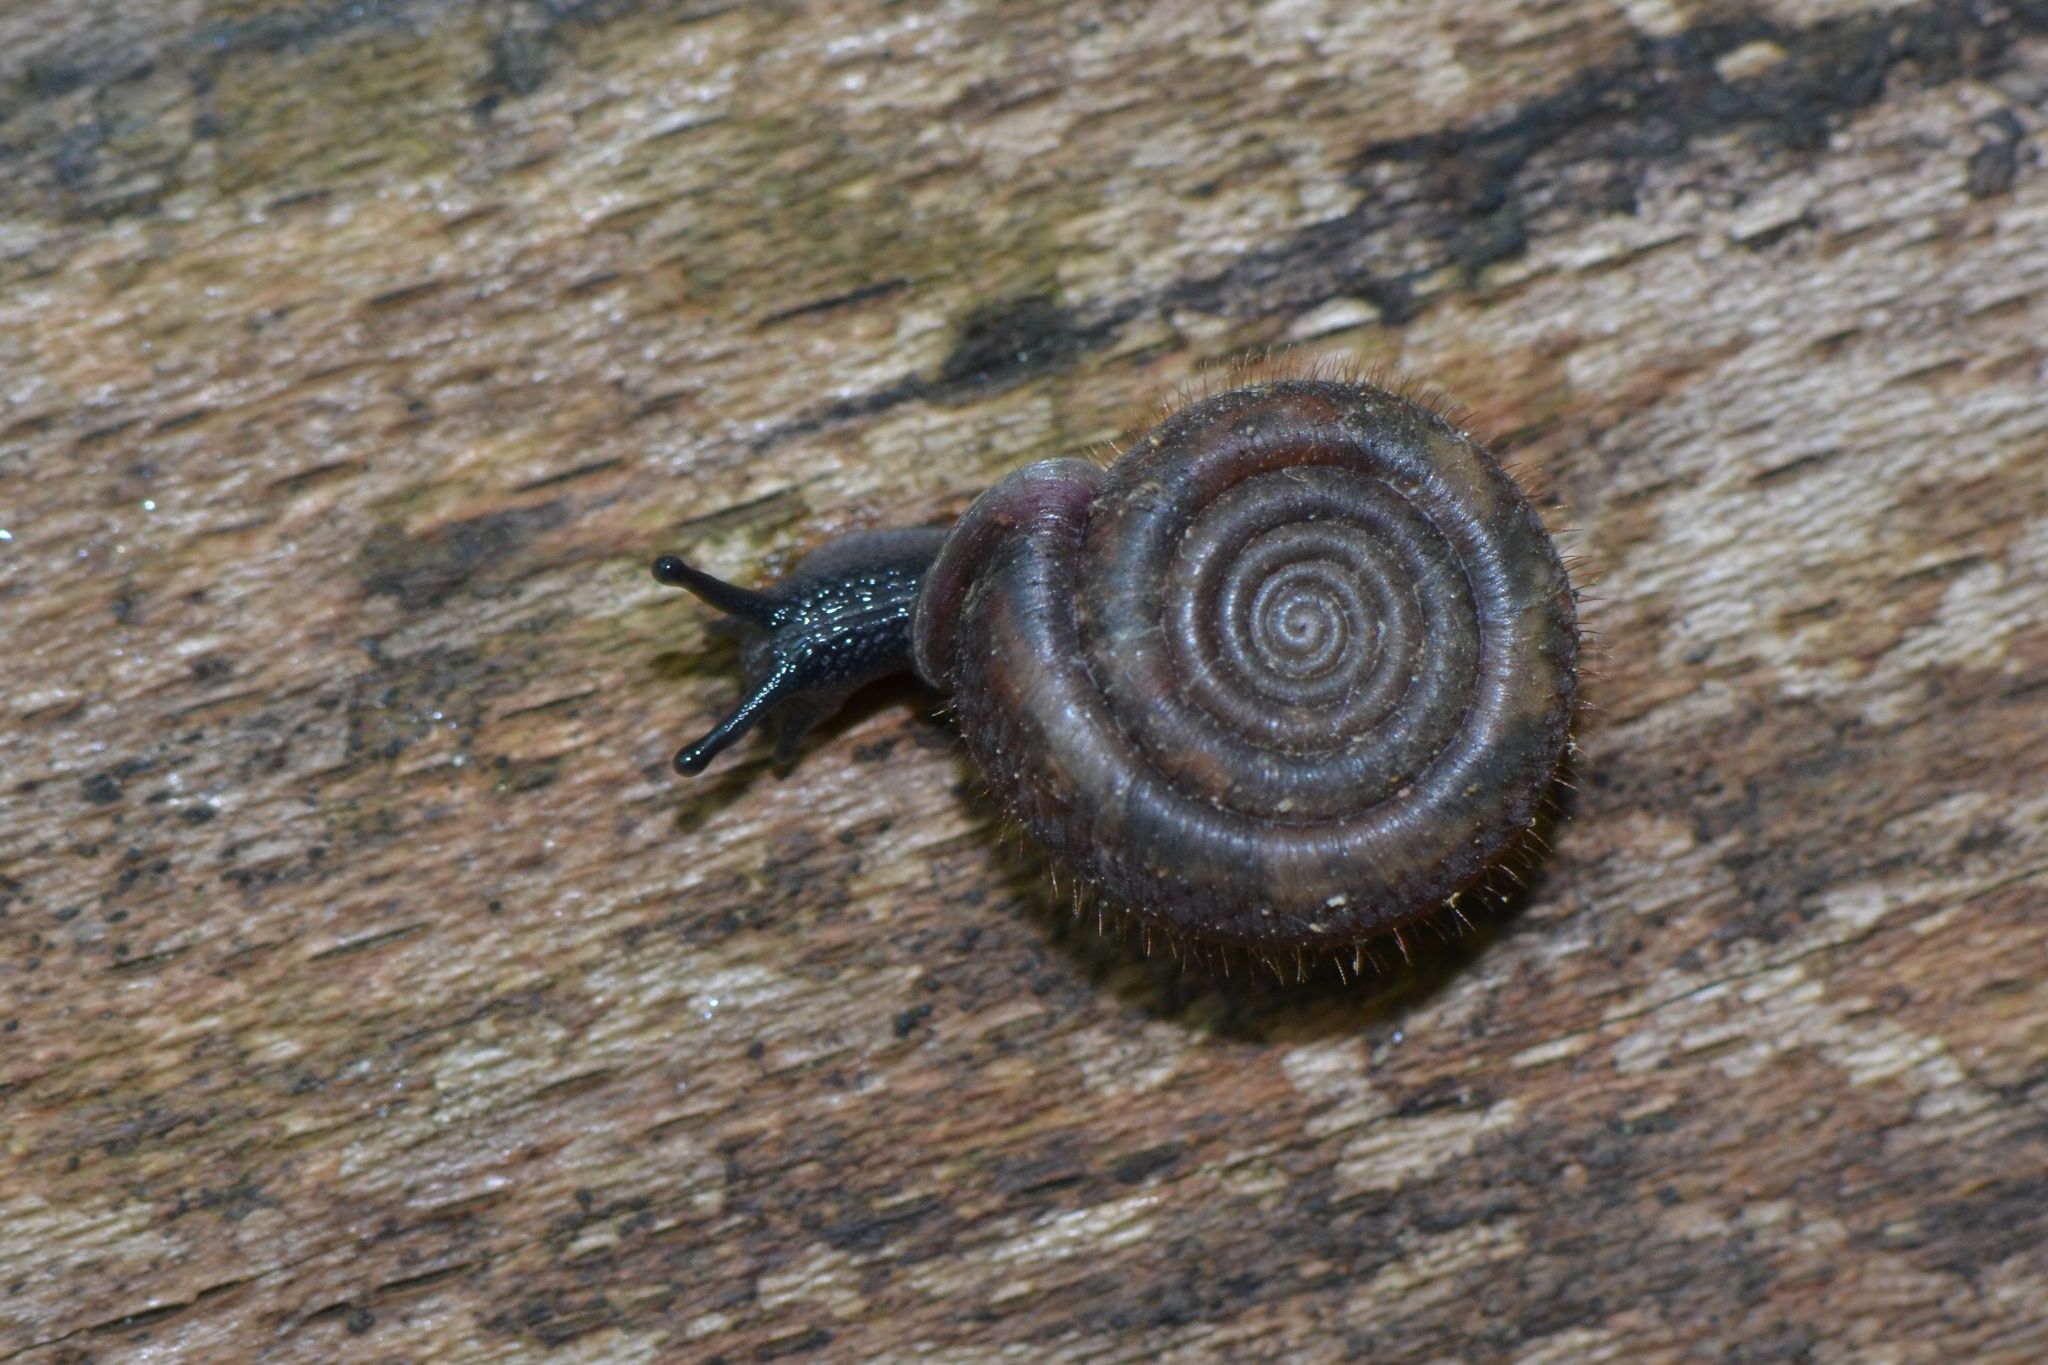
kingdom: Animalia
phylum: Mollusca
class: Gastropoda
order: Stylommatophora
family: Helicodontidae
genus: Helicodonta
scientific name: Helicodonta obvoluta
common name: Cheese snail
